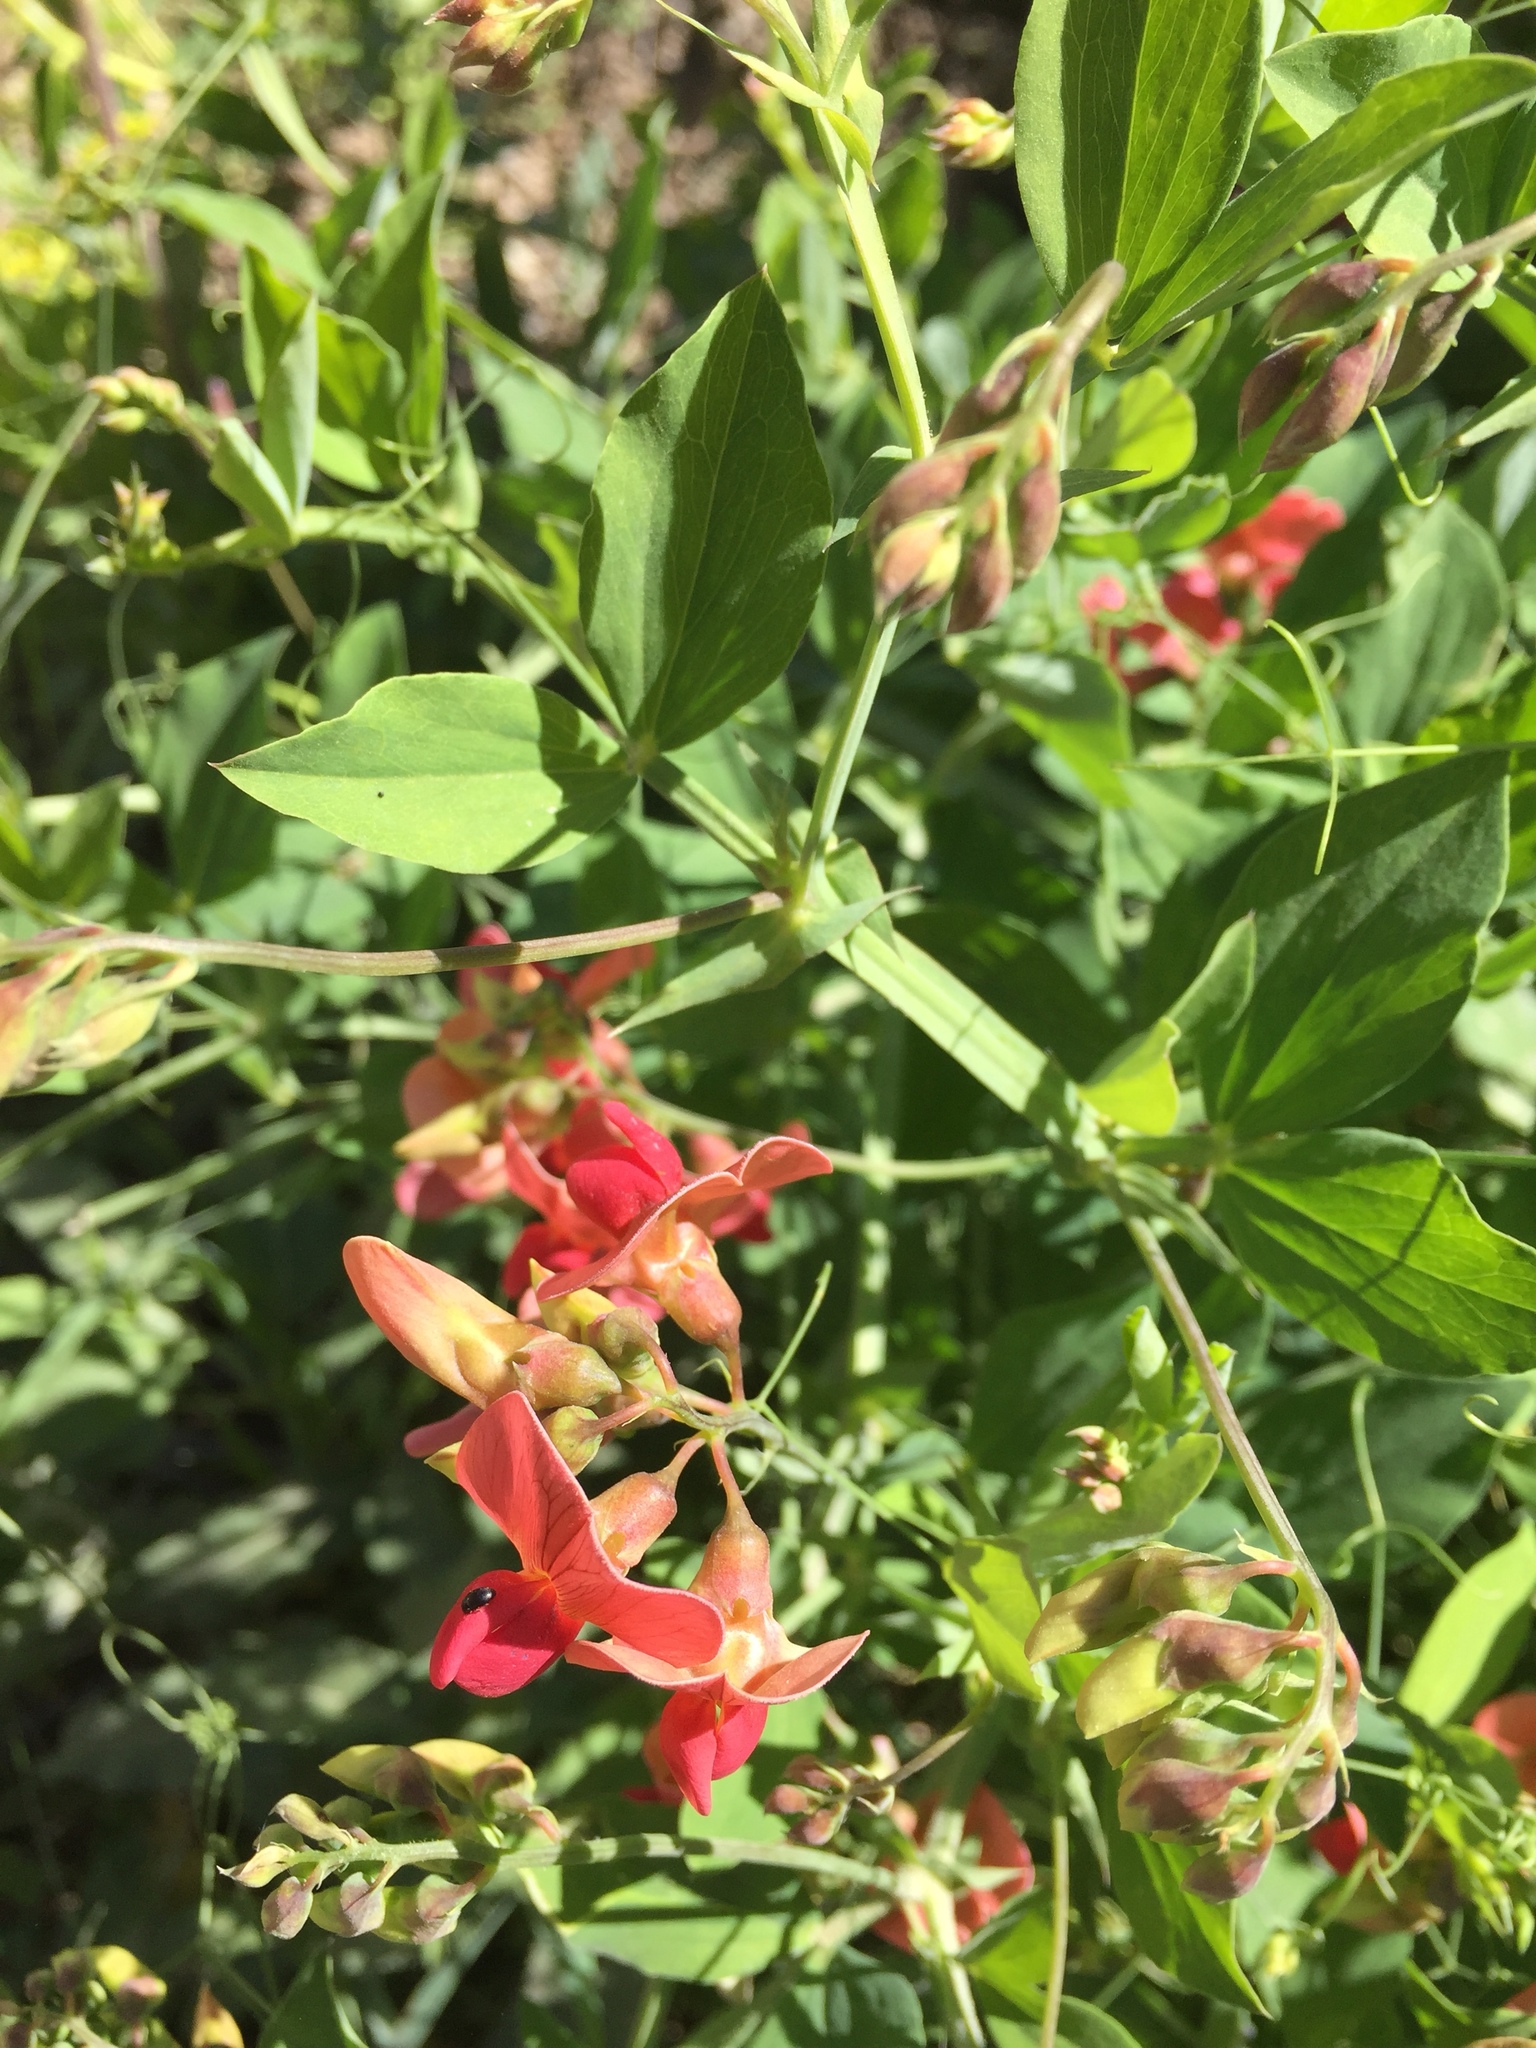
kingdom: Plantae
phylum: Tracheophyta
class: Magnoliopsida
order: Fabales
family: Fabaceae
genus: Lathyrus
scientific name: Lathyrus miniatus
